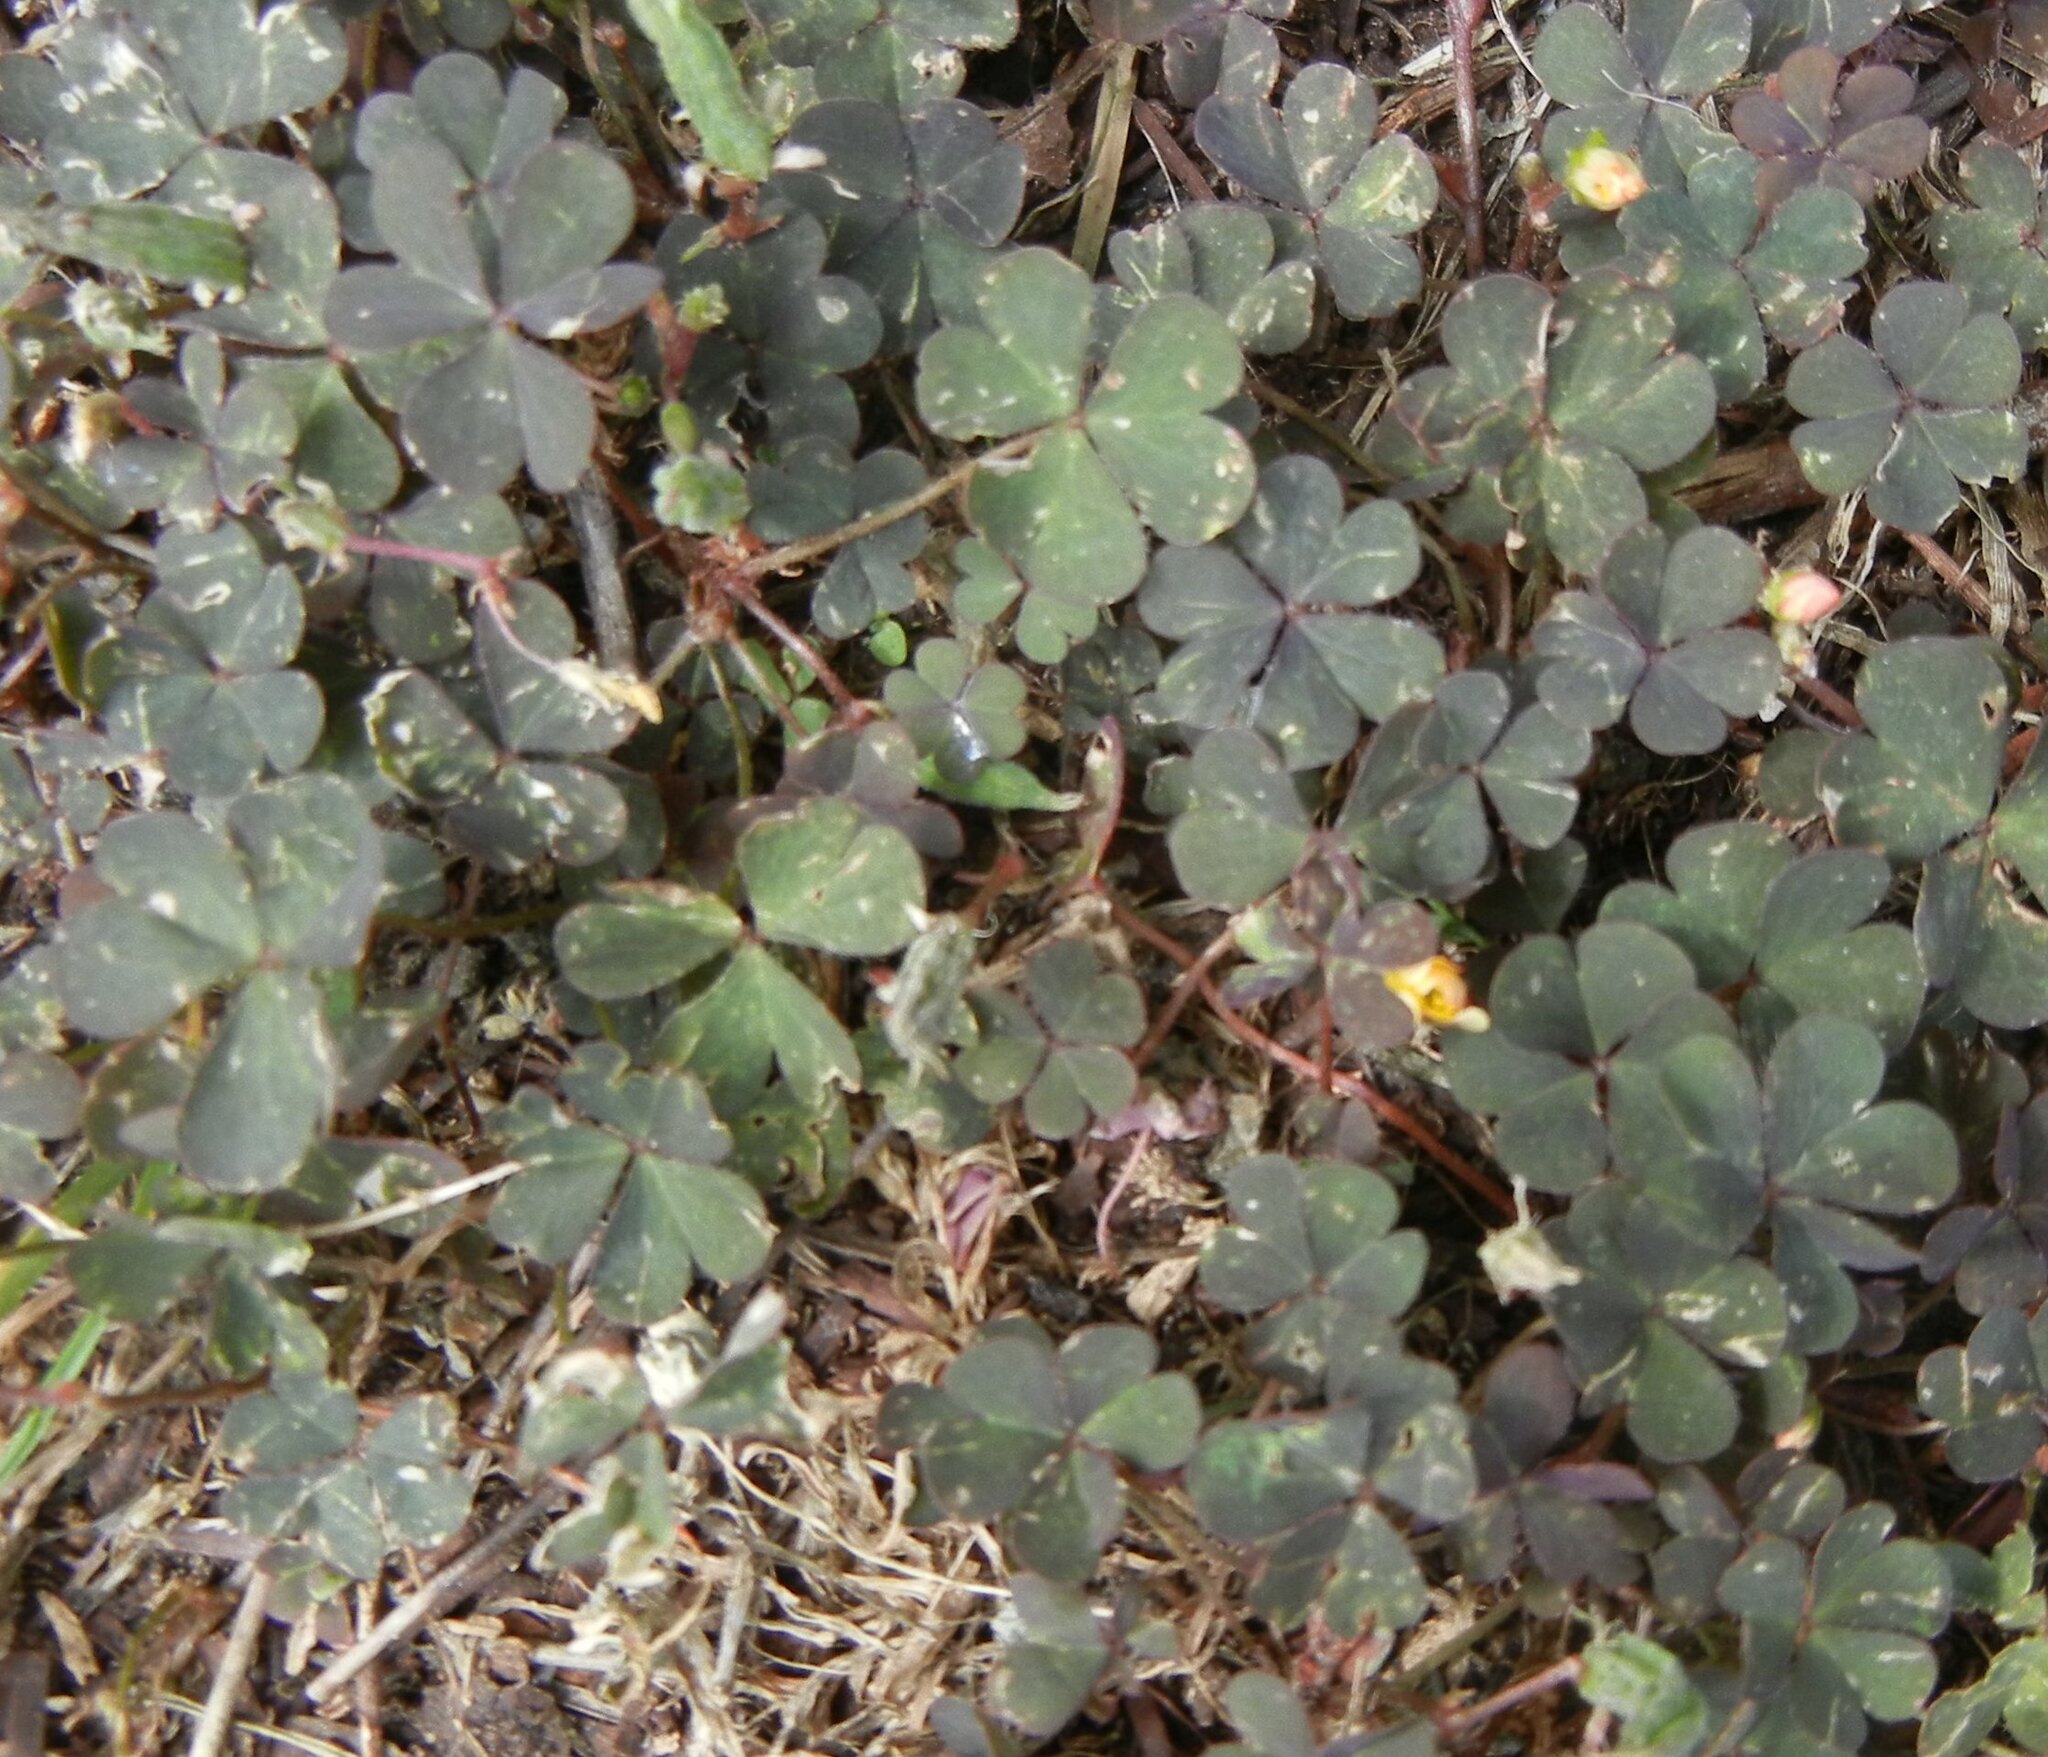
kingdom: Plantae
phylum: Tracheophyta
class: Magnoliopsida
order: Oxalidales
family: Oxalidaceae
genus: Oxalis
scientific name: Oxalis corniculata
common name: Procumbent yellow-sorrel
